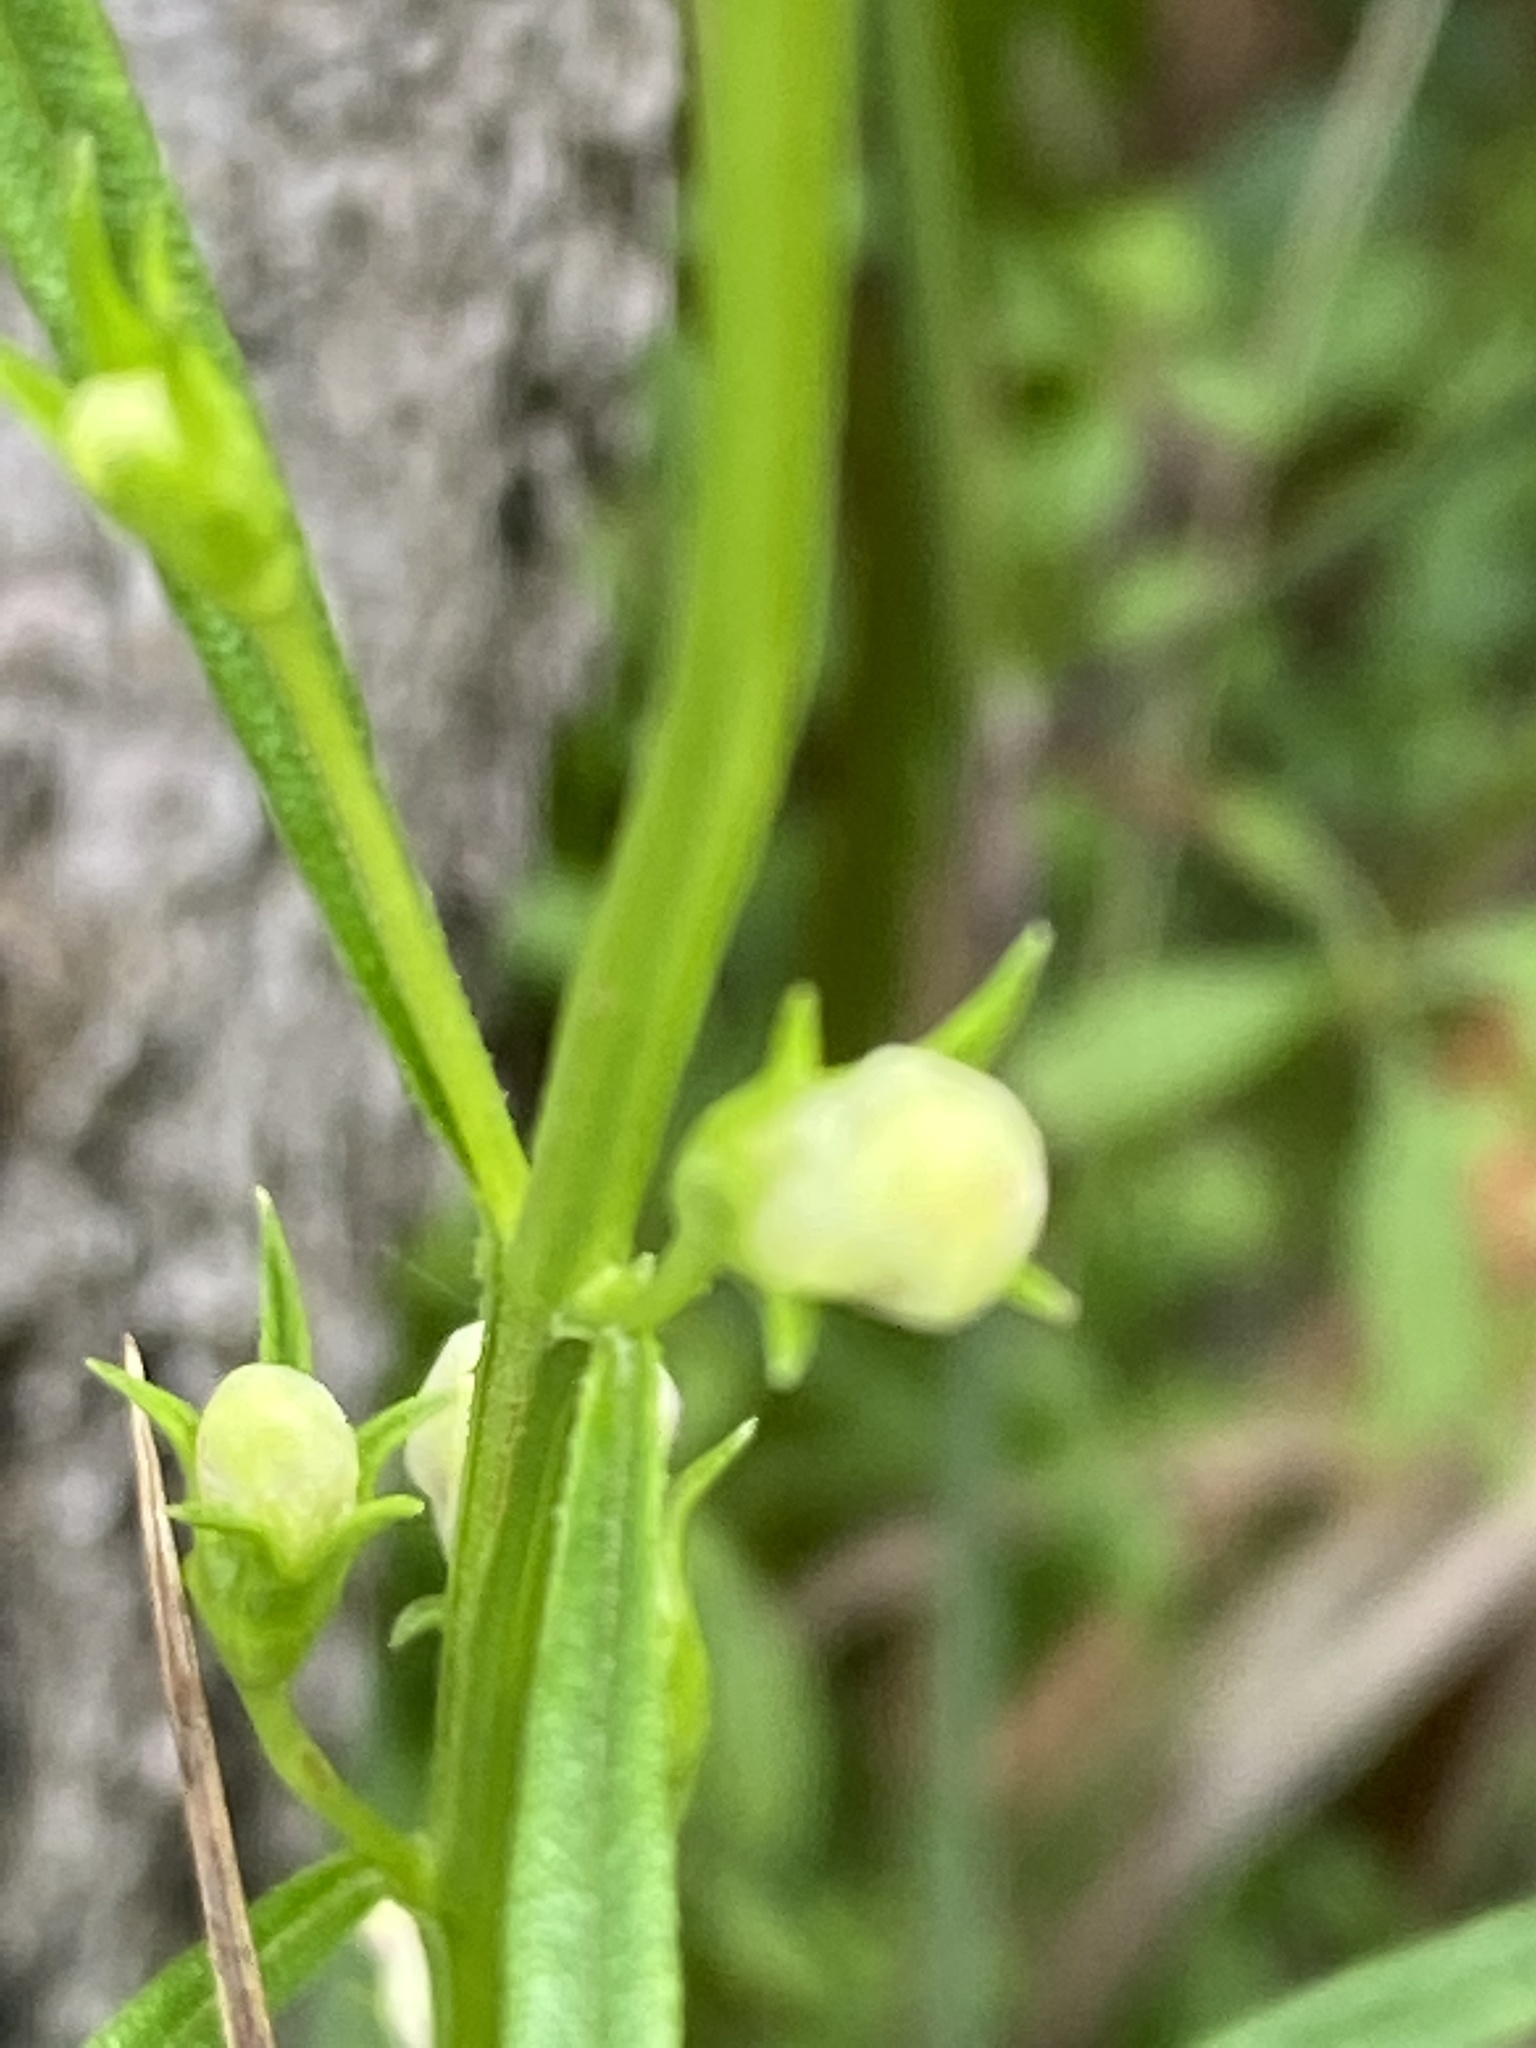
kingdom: Plantae
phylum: Tracheophyta
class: Magnoliopsida
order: Lamiales
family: Orobanchaceae
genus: Agalinis
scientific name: Agalinis purpurea
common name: Purple false foxglove
